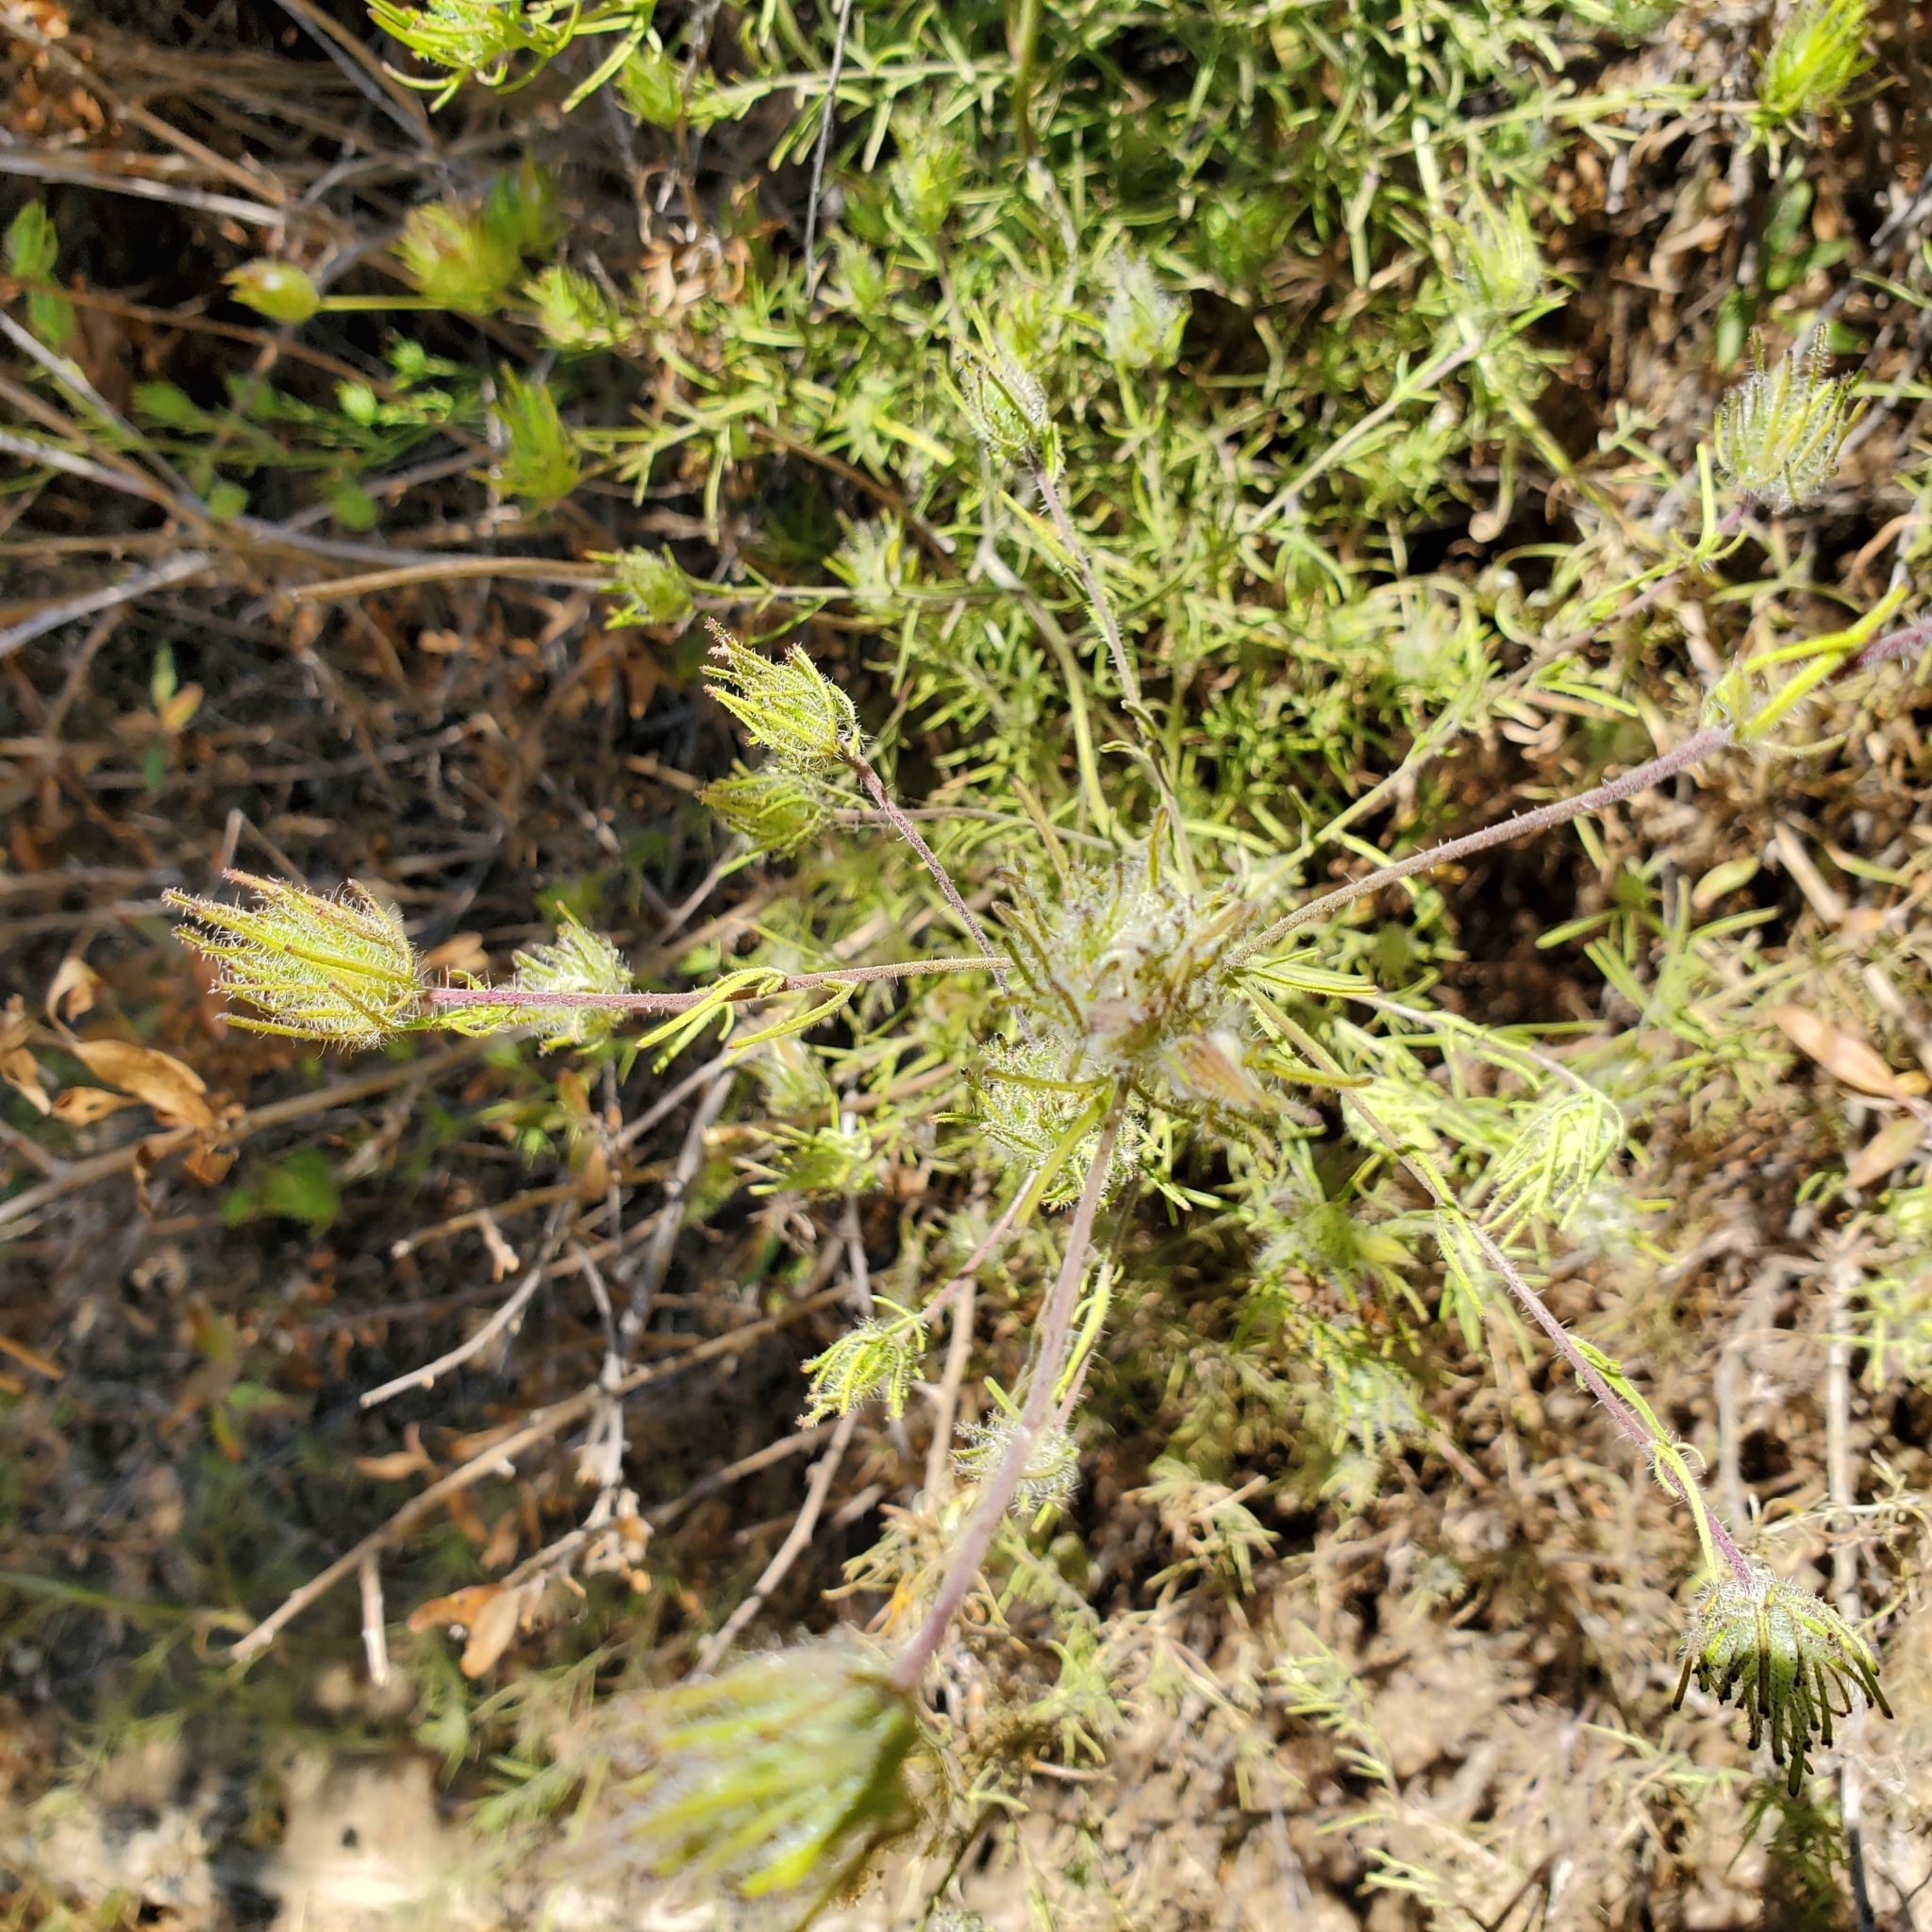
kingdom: Plantae
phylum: Tracheophyta
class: Magnoliopsida
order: Lamiales
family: Orobanchaceae
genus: Cordylanthus
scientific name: Cordylanthus rigidus
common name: Stiff-branch bird's-beak
